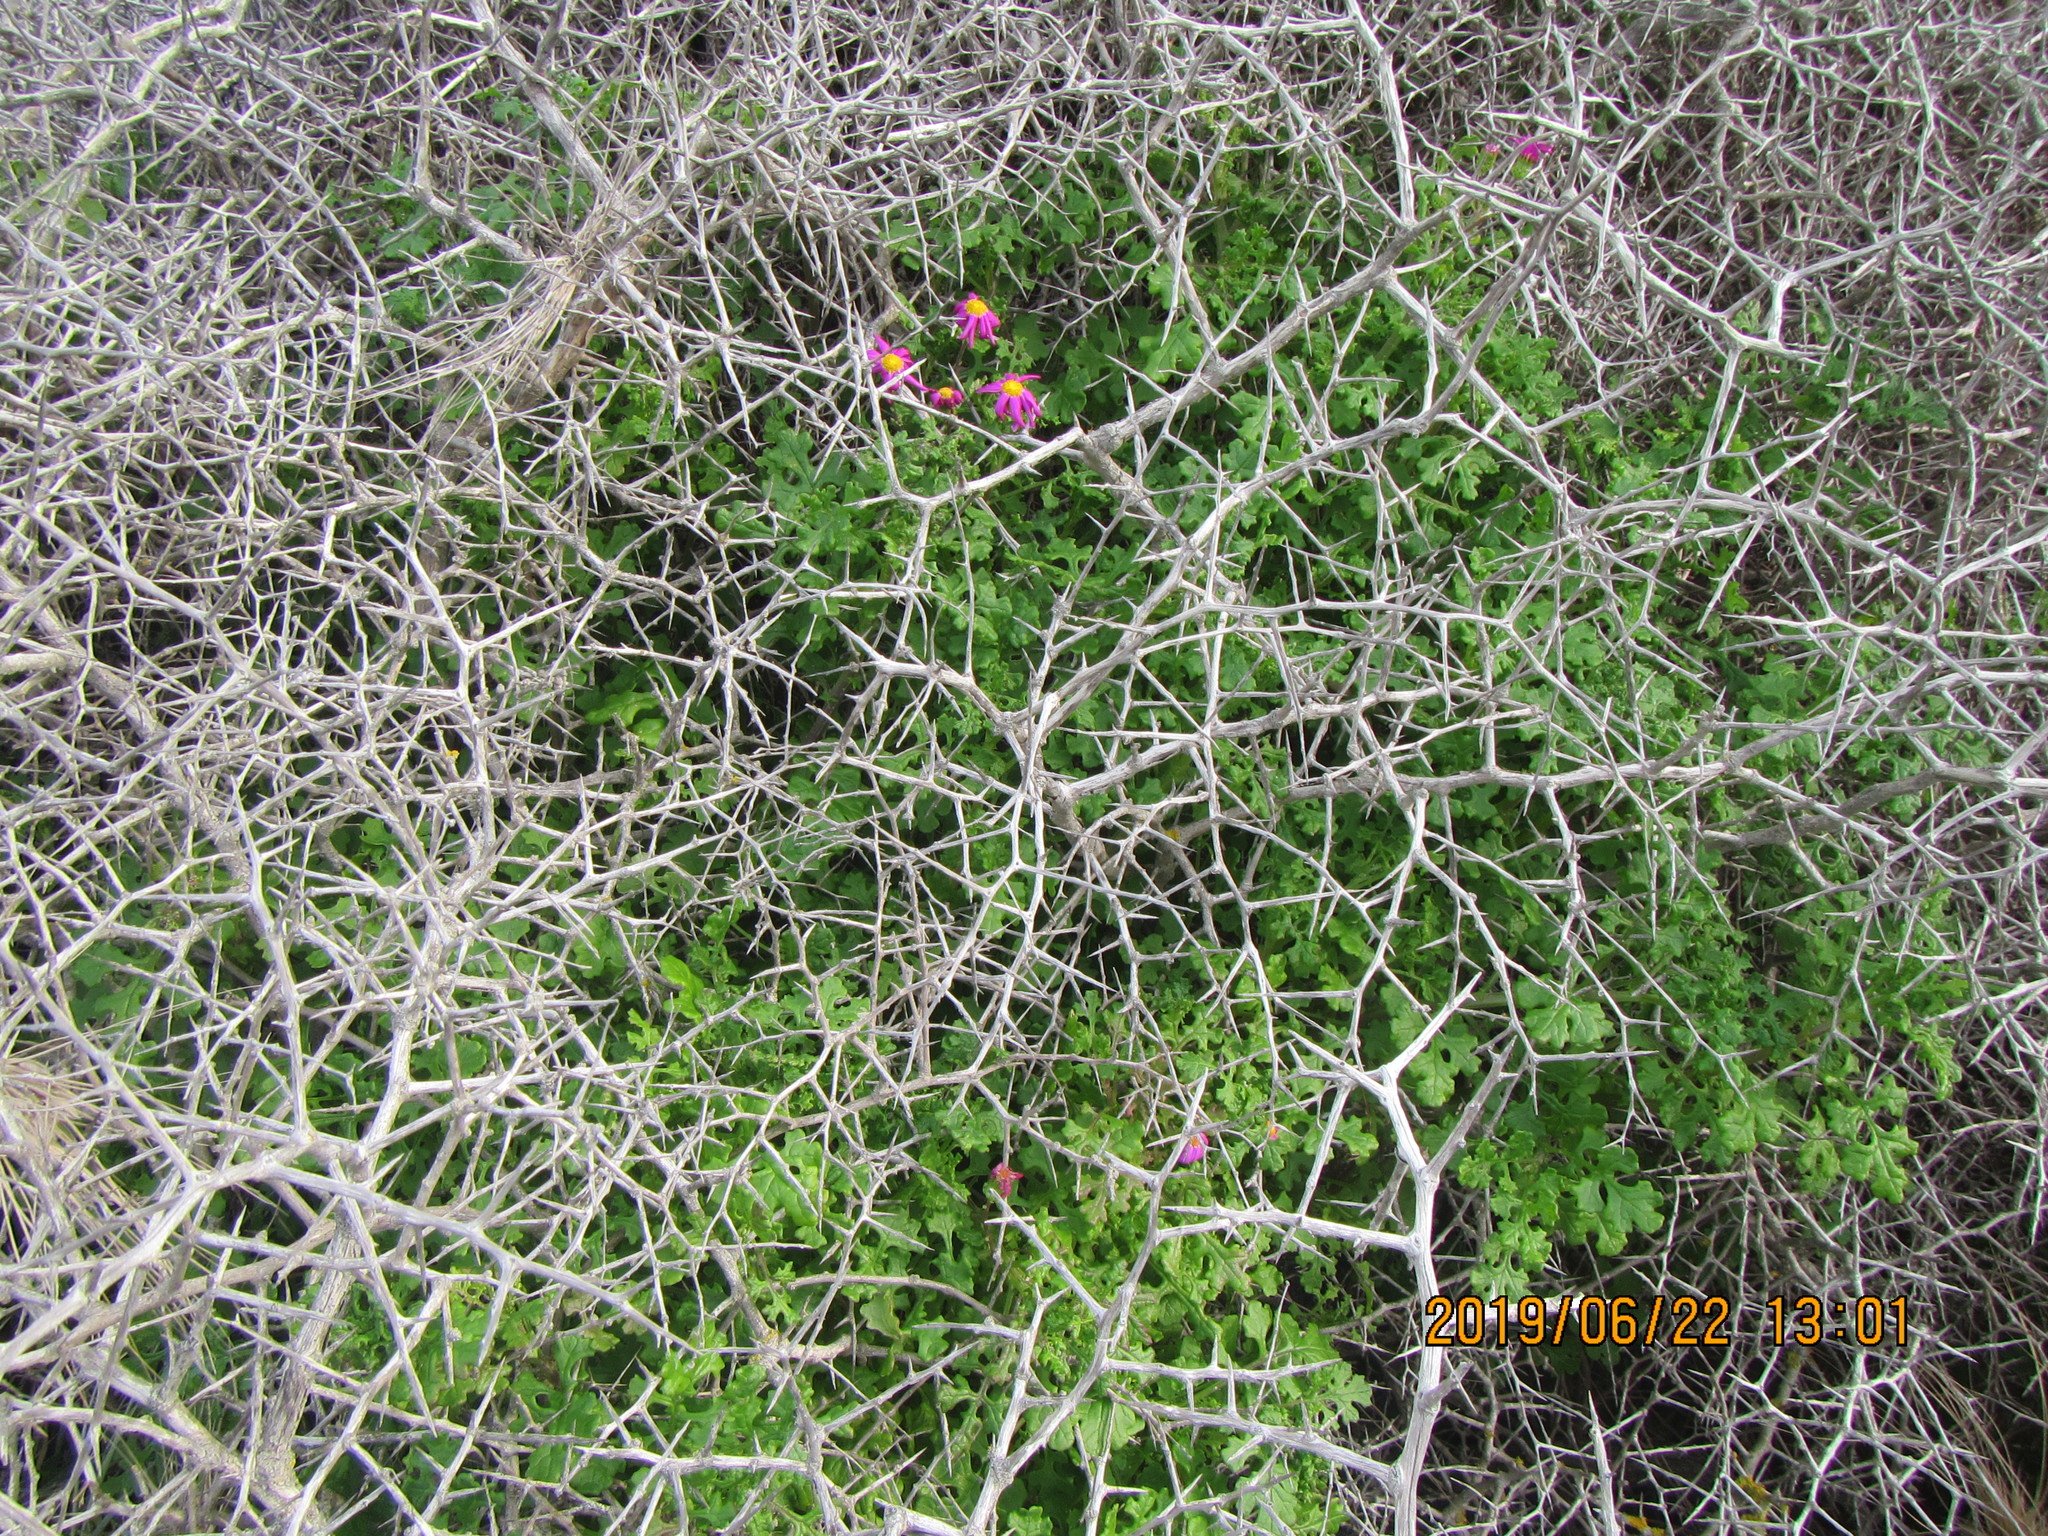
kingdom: Plantae
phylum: Tracheophyta
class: Magnoliopsida
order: Asterales
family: Asteraceae
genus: Senecio
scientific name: Senecio elegans
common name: Purple groundsel
